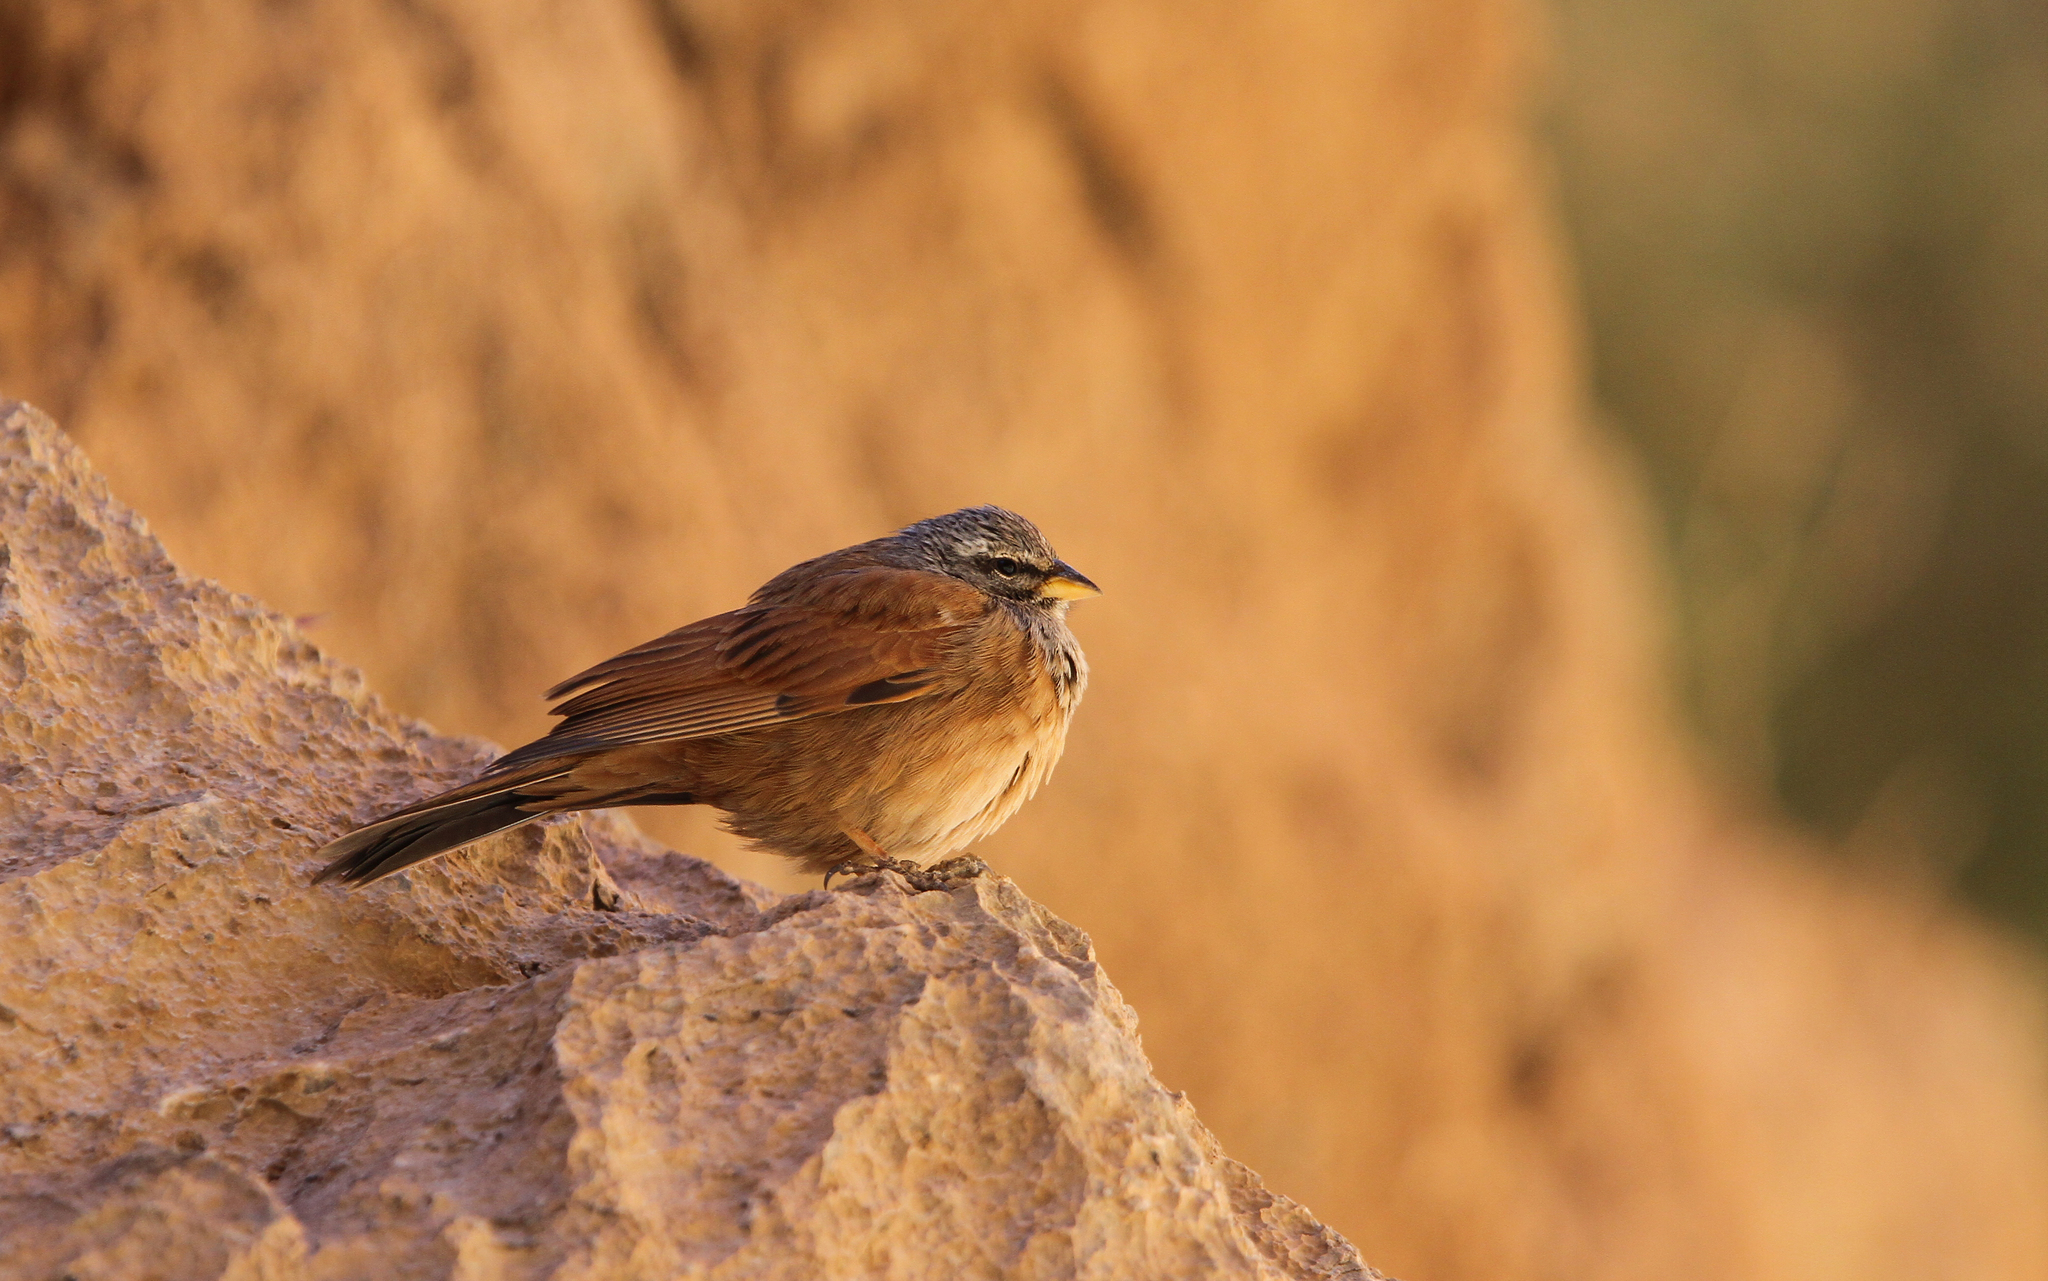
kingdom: Animalia
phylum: Chordata
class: Aves
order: Passeriformes
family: Emberizidae
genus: Emberiza
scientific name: Emberiza sahari
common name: House bunting
